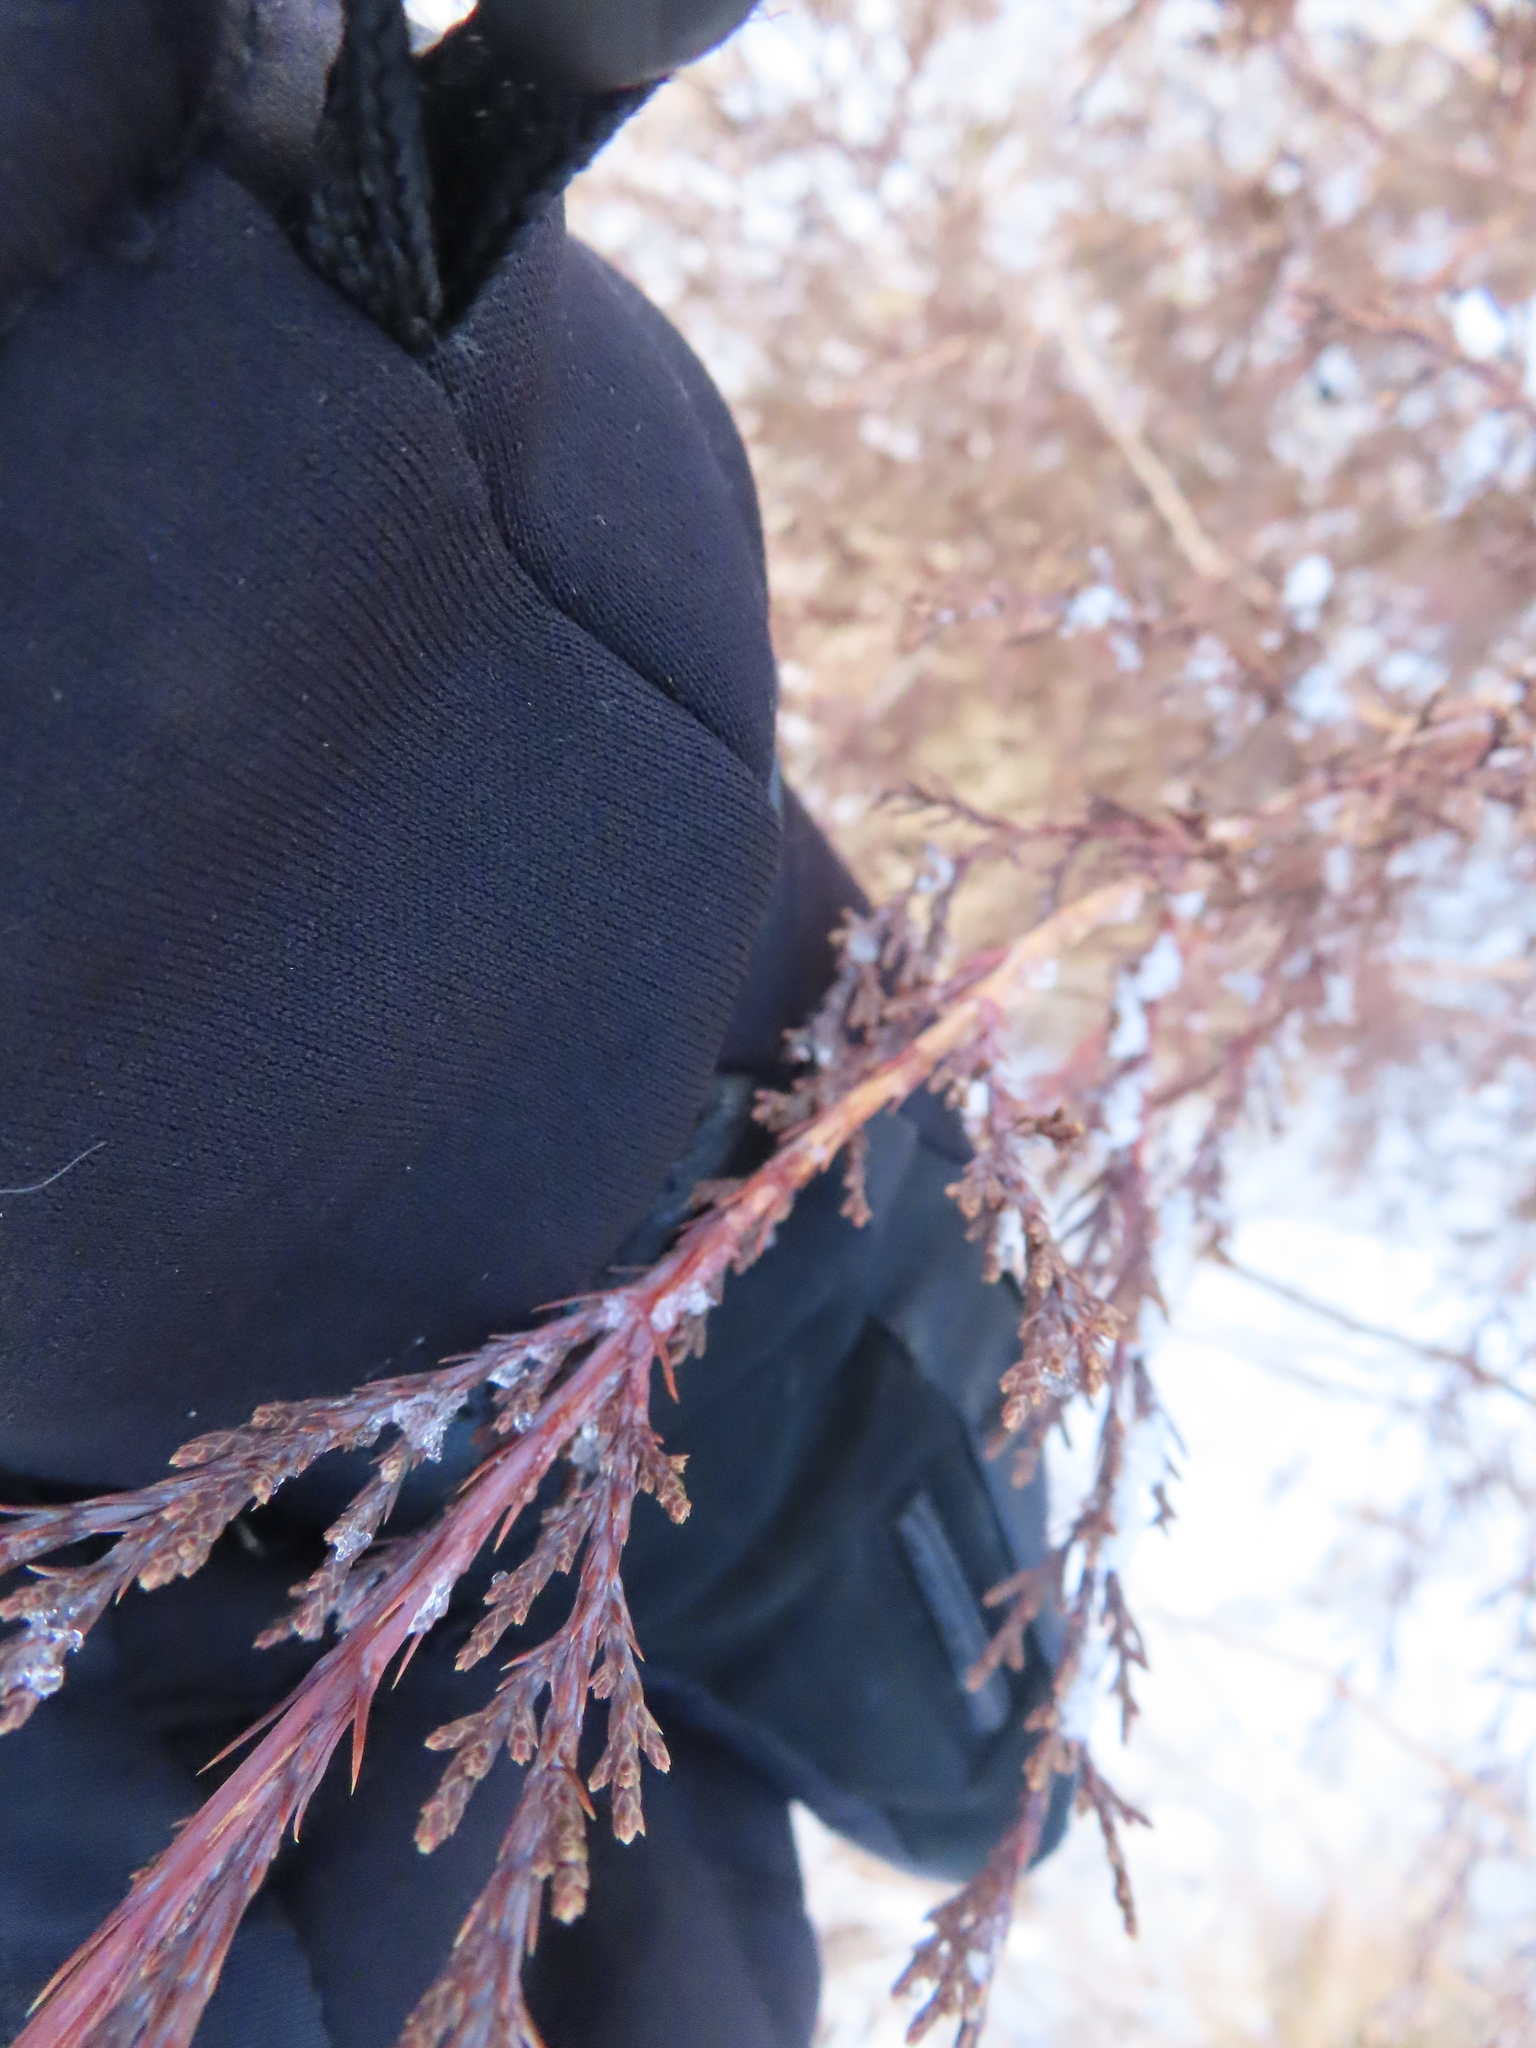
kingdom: Plantae
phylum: Tracheophyta
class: Pinopsida
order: Pinales
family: Cupressaceae
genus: Juniperus
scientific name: Juniperus virginiana
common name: Red juniper
